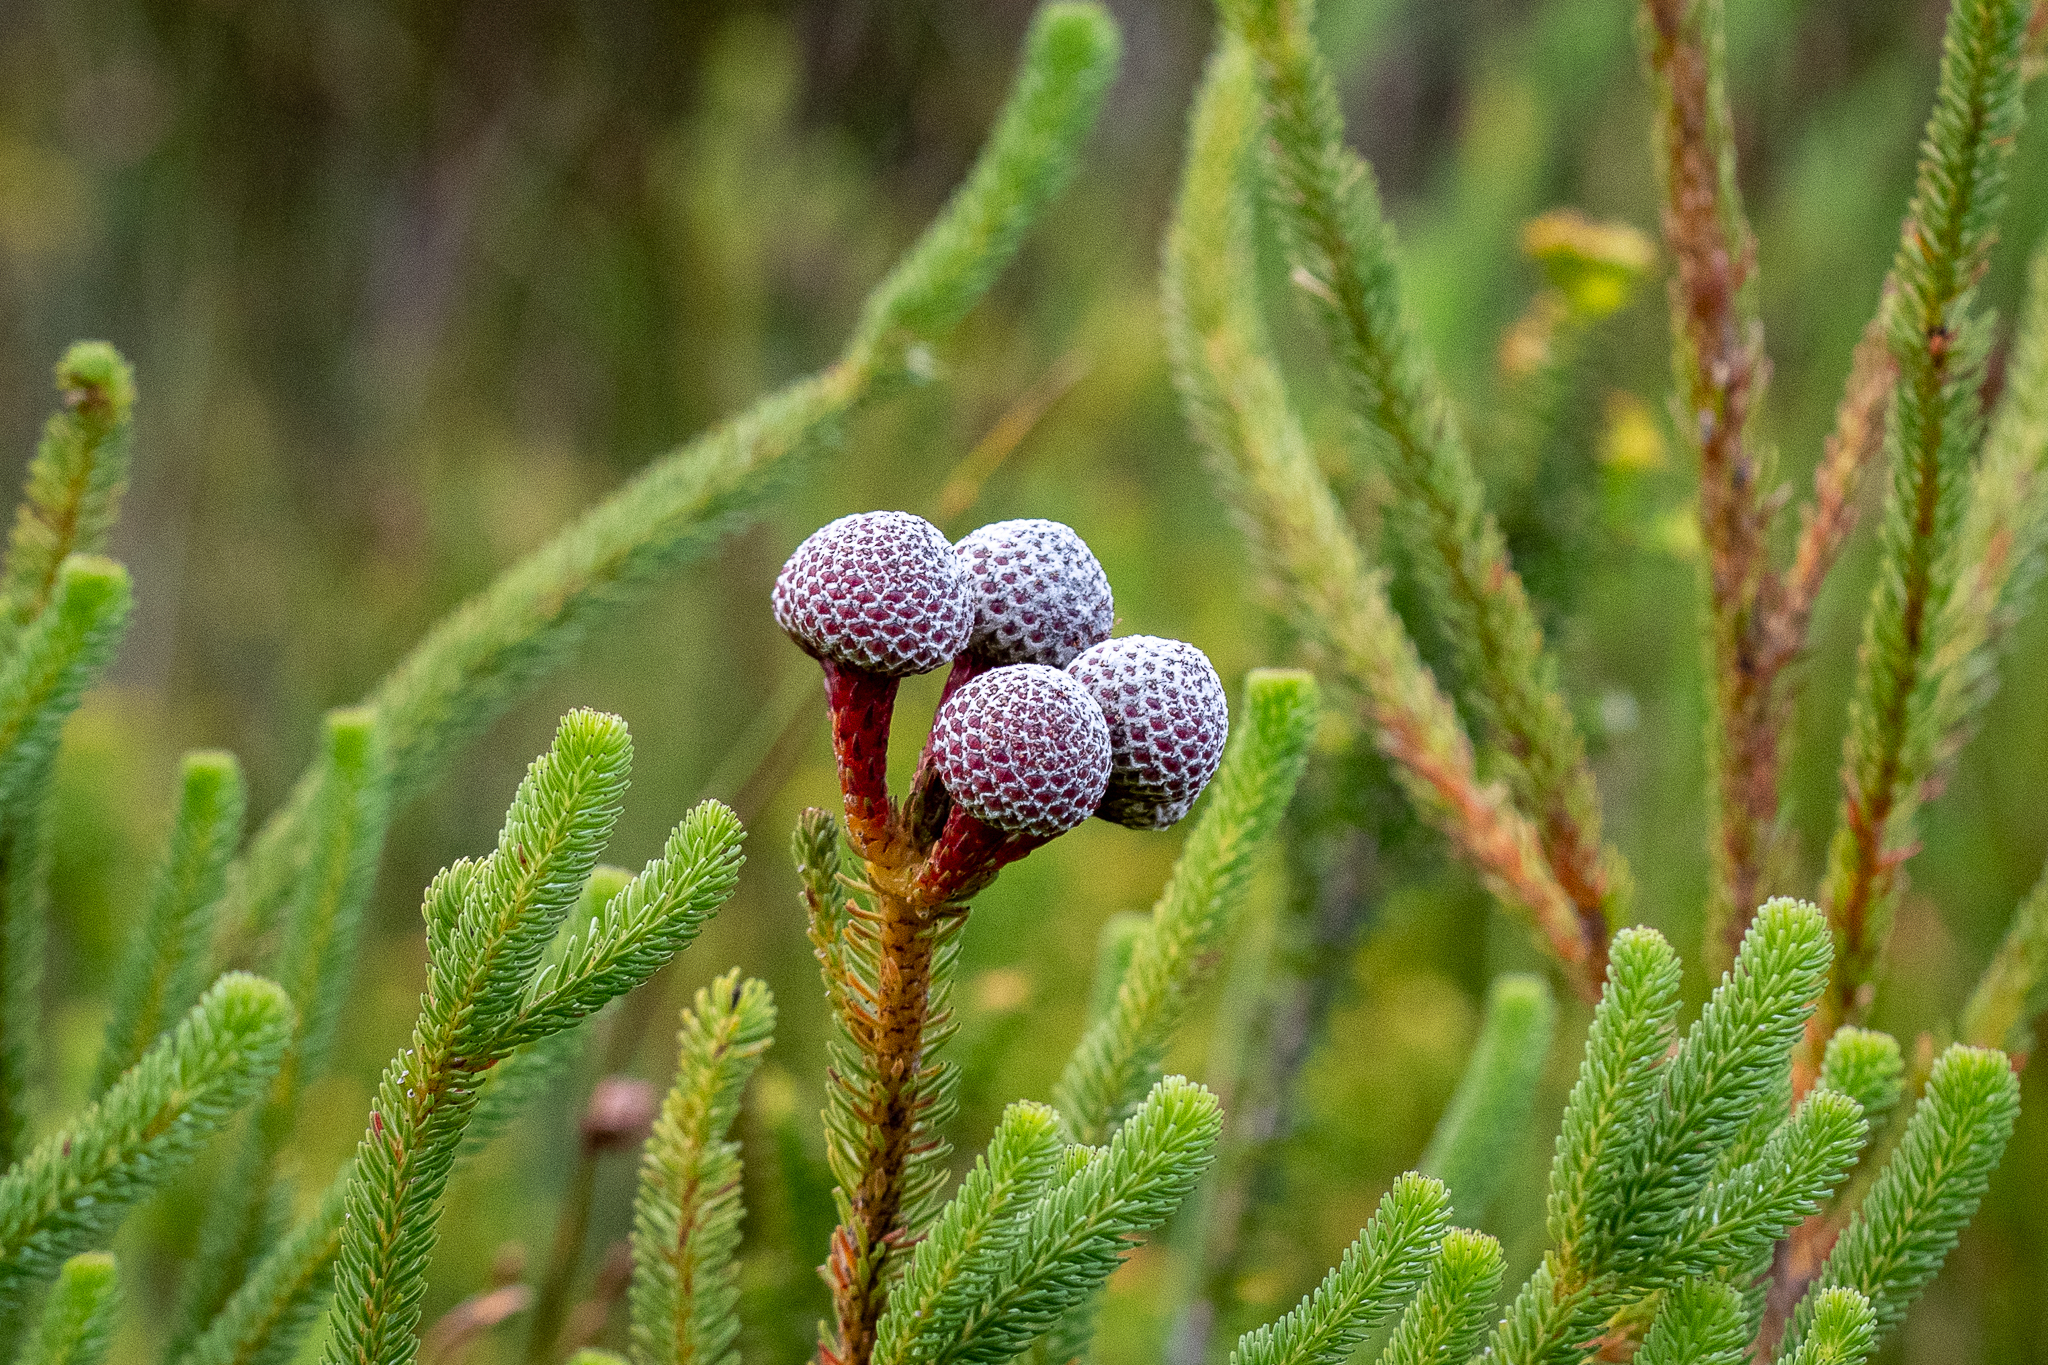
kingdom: Plantae
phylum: Tracheophyta
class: Magnoliopsida
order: Bruniales
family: Bruniaceae
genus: Berzelia
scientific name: Berzelia stokoei
